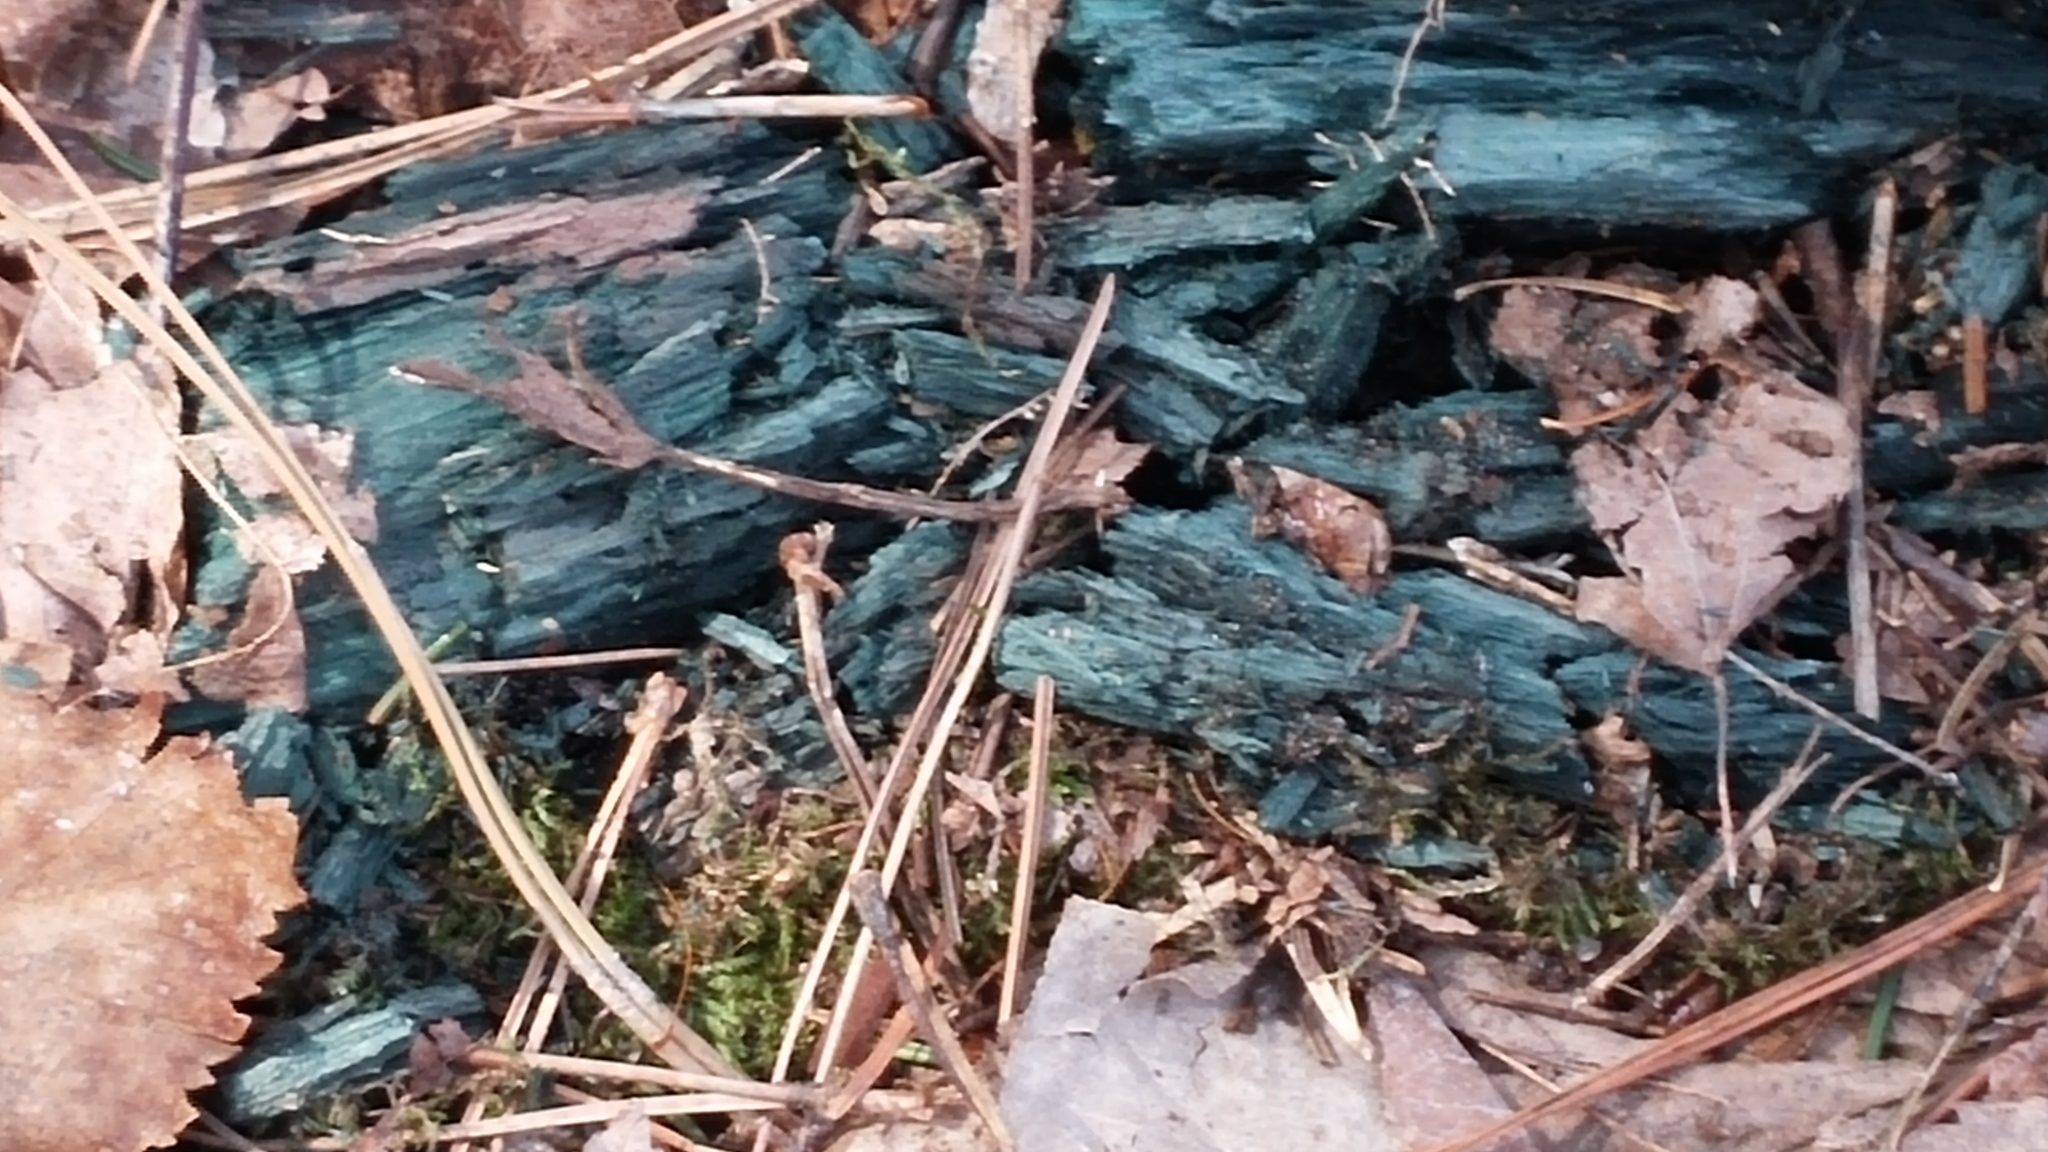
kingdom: Fungi
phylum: Ascomycota
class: Leotiomycetes
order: Helotiales
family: Chlorociboriaceae
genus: Chlorociboria
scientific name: Chlorociboria
